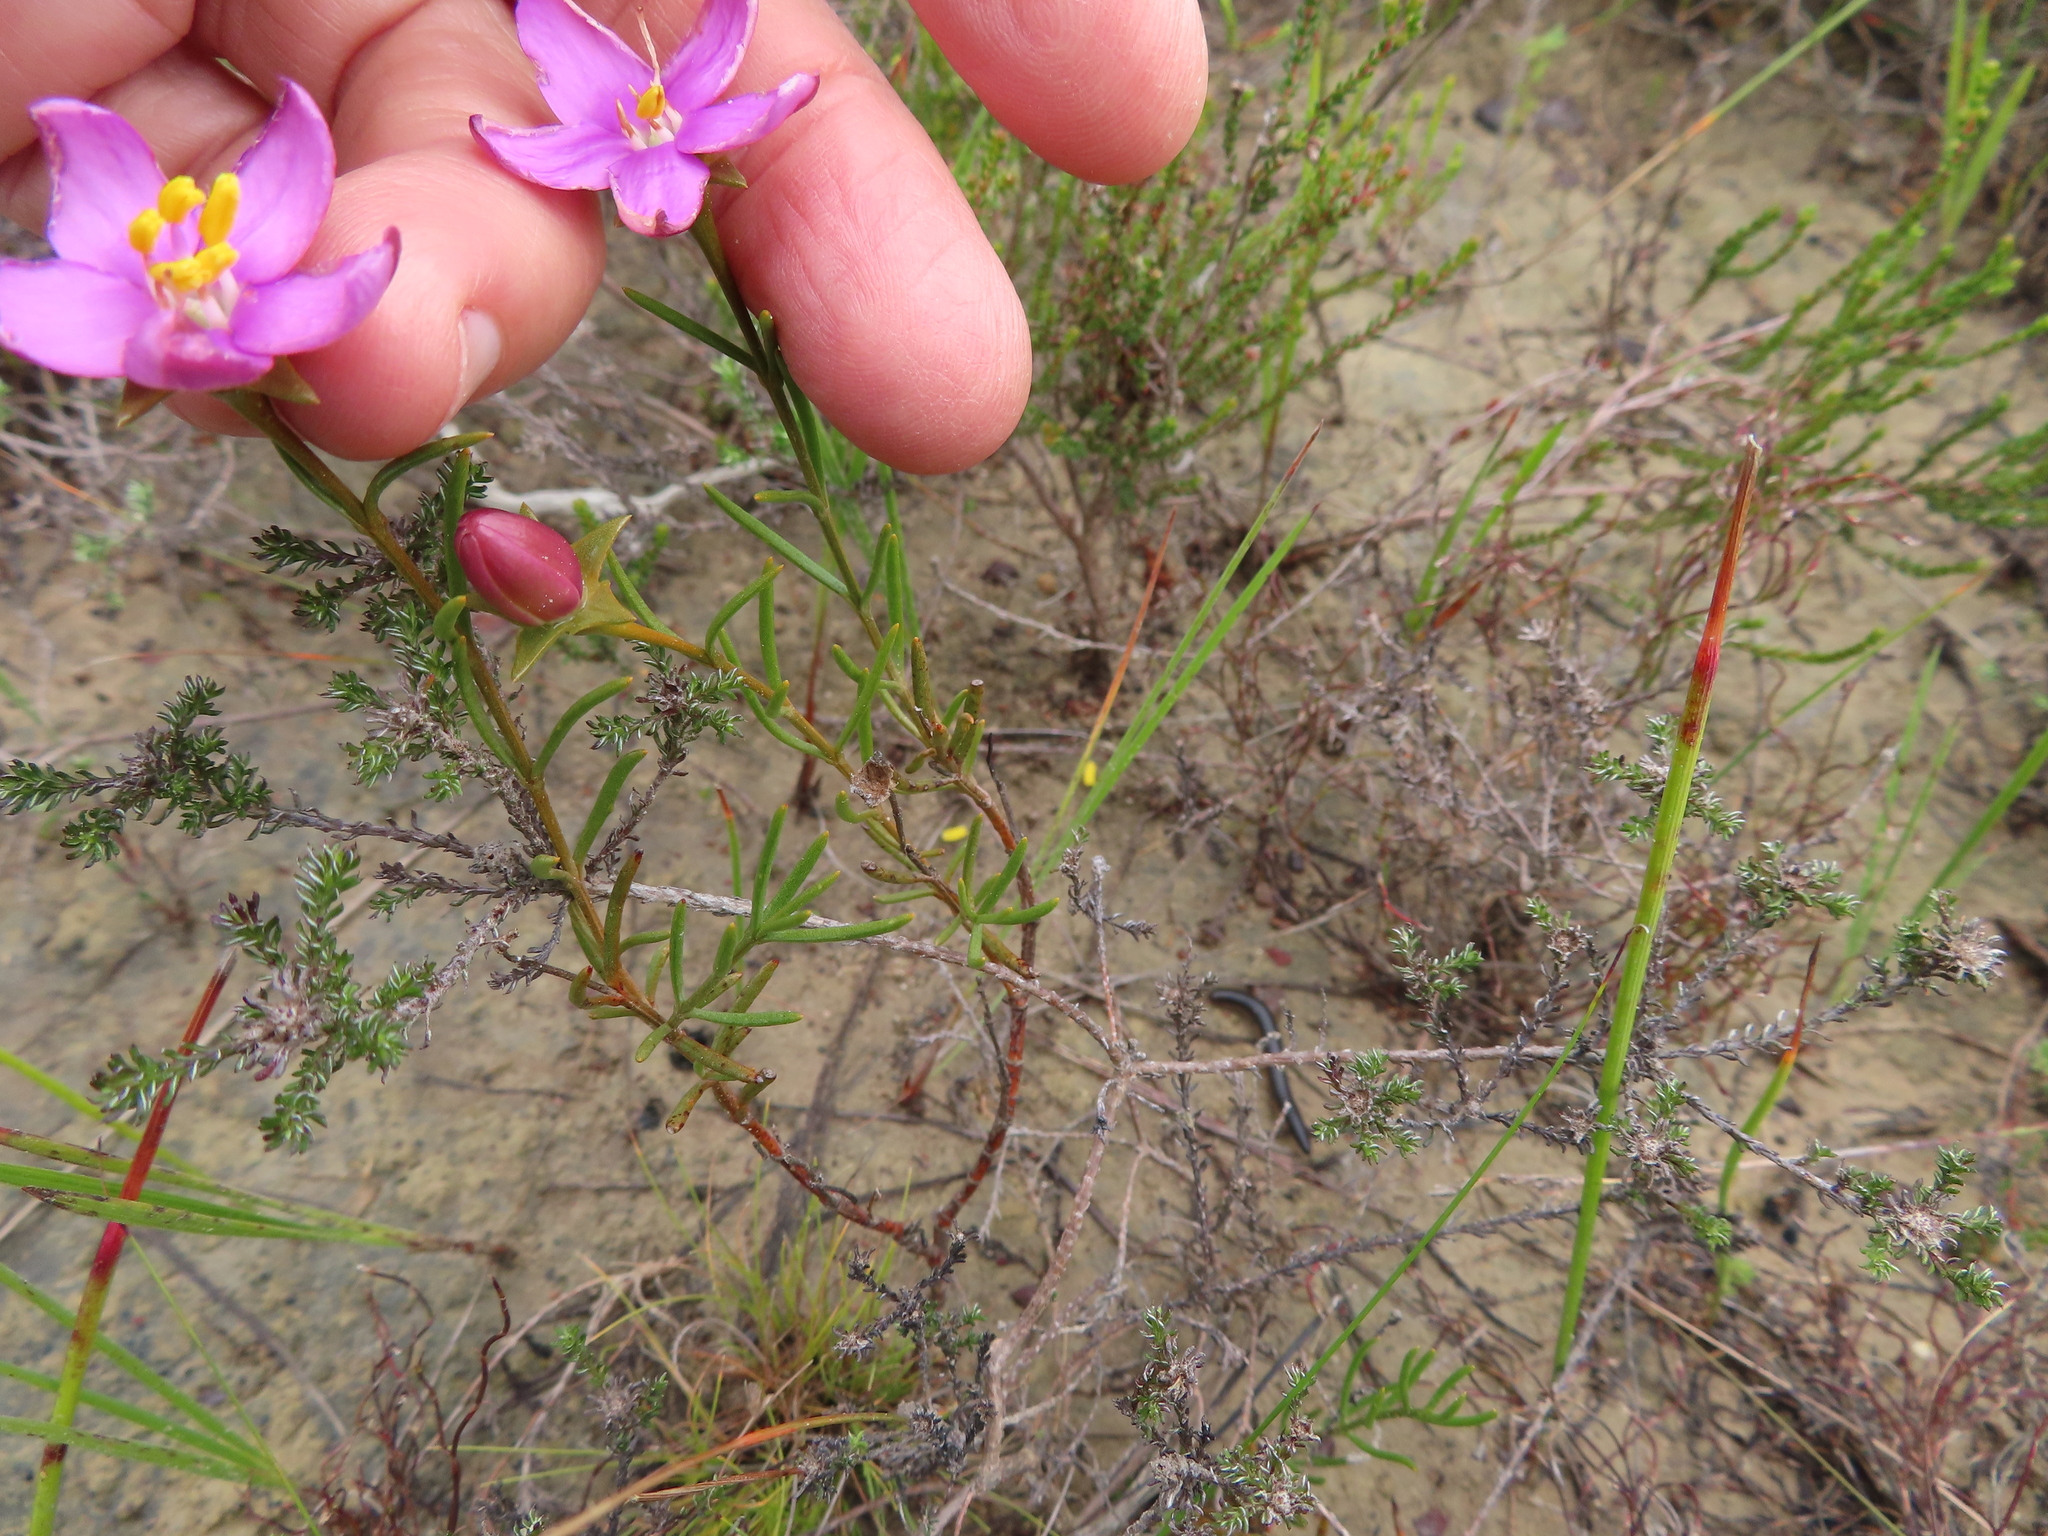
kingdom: Plantae
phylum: Tracheophyta
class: Magnoliopsida
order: Gentianales
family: Gentianaceae
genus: Chironia
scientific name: Chironia linoides
